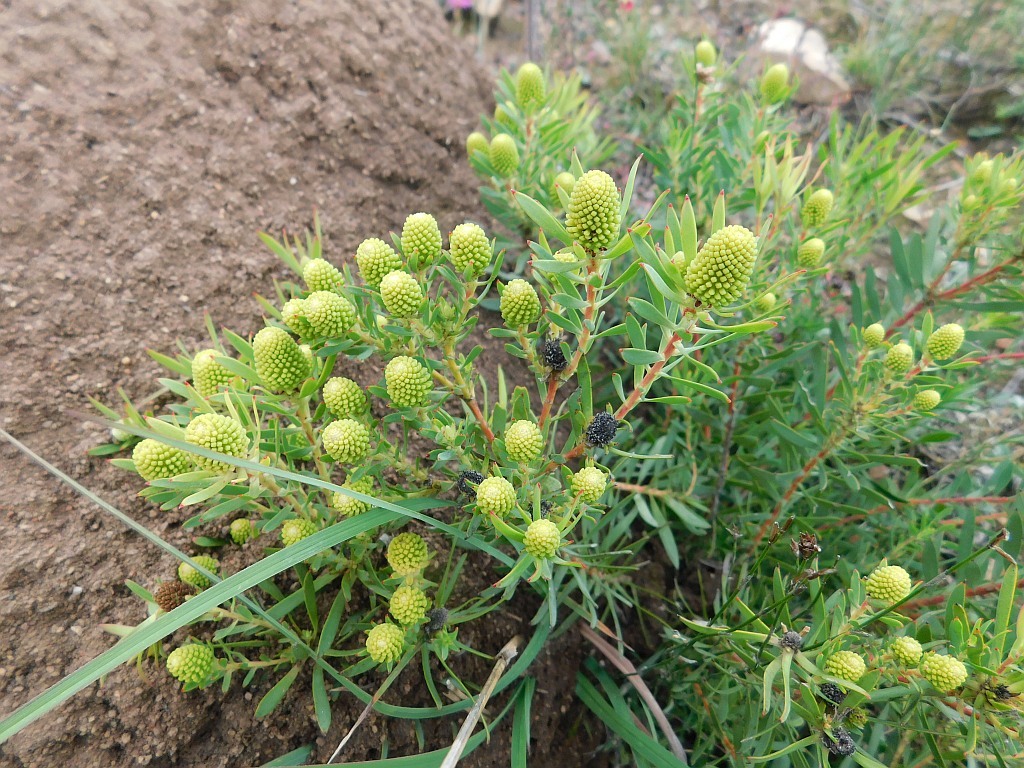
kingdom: Plantae
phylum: Tracheophyta
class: Magnoliopsida
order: Proteales
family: Proteaceae
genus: Leucadendron
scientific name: Leucadendron salignum
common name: Common sunshine conebush
